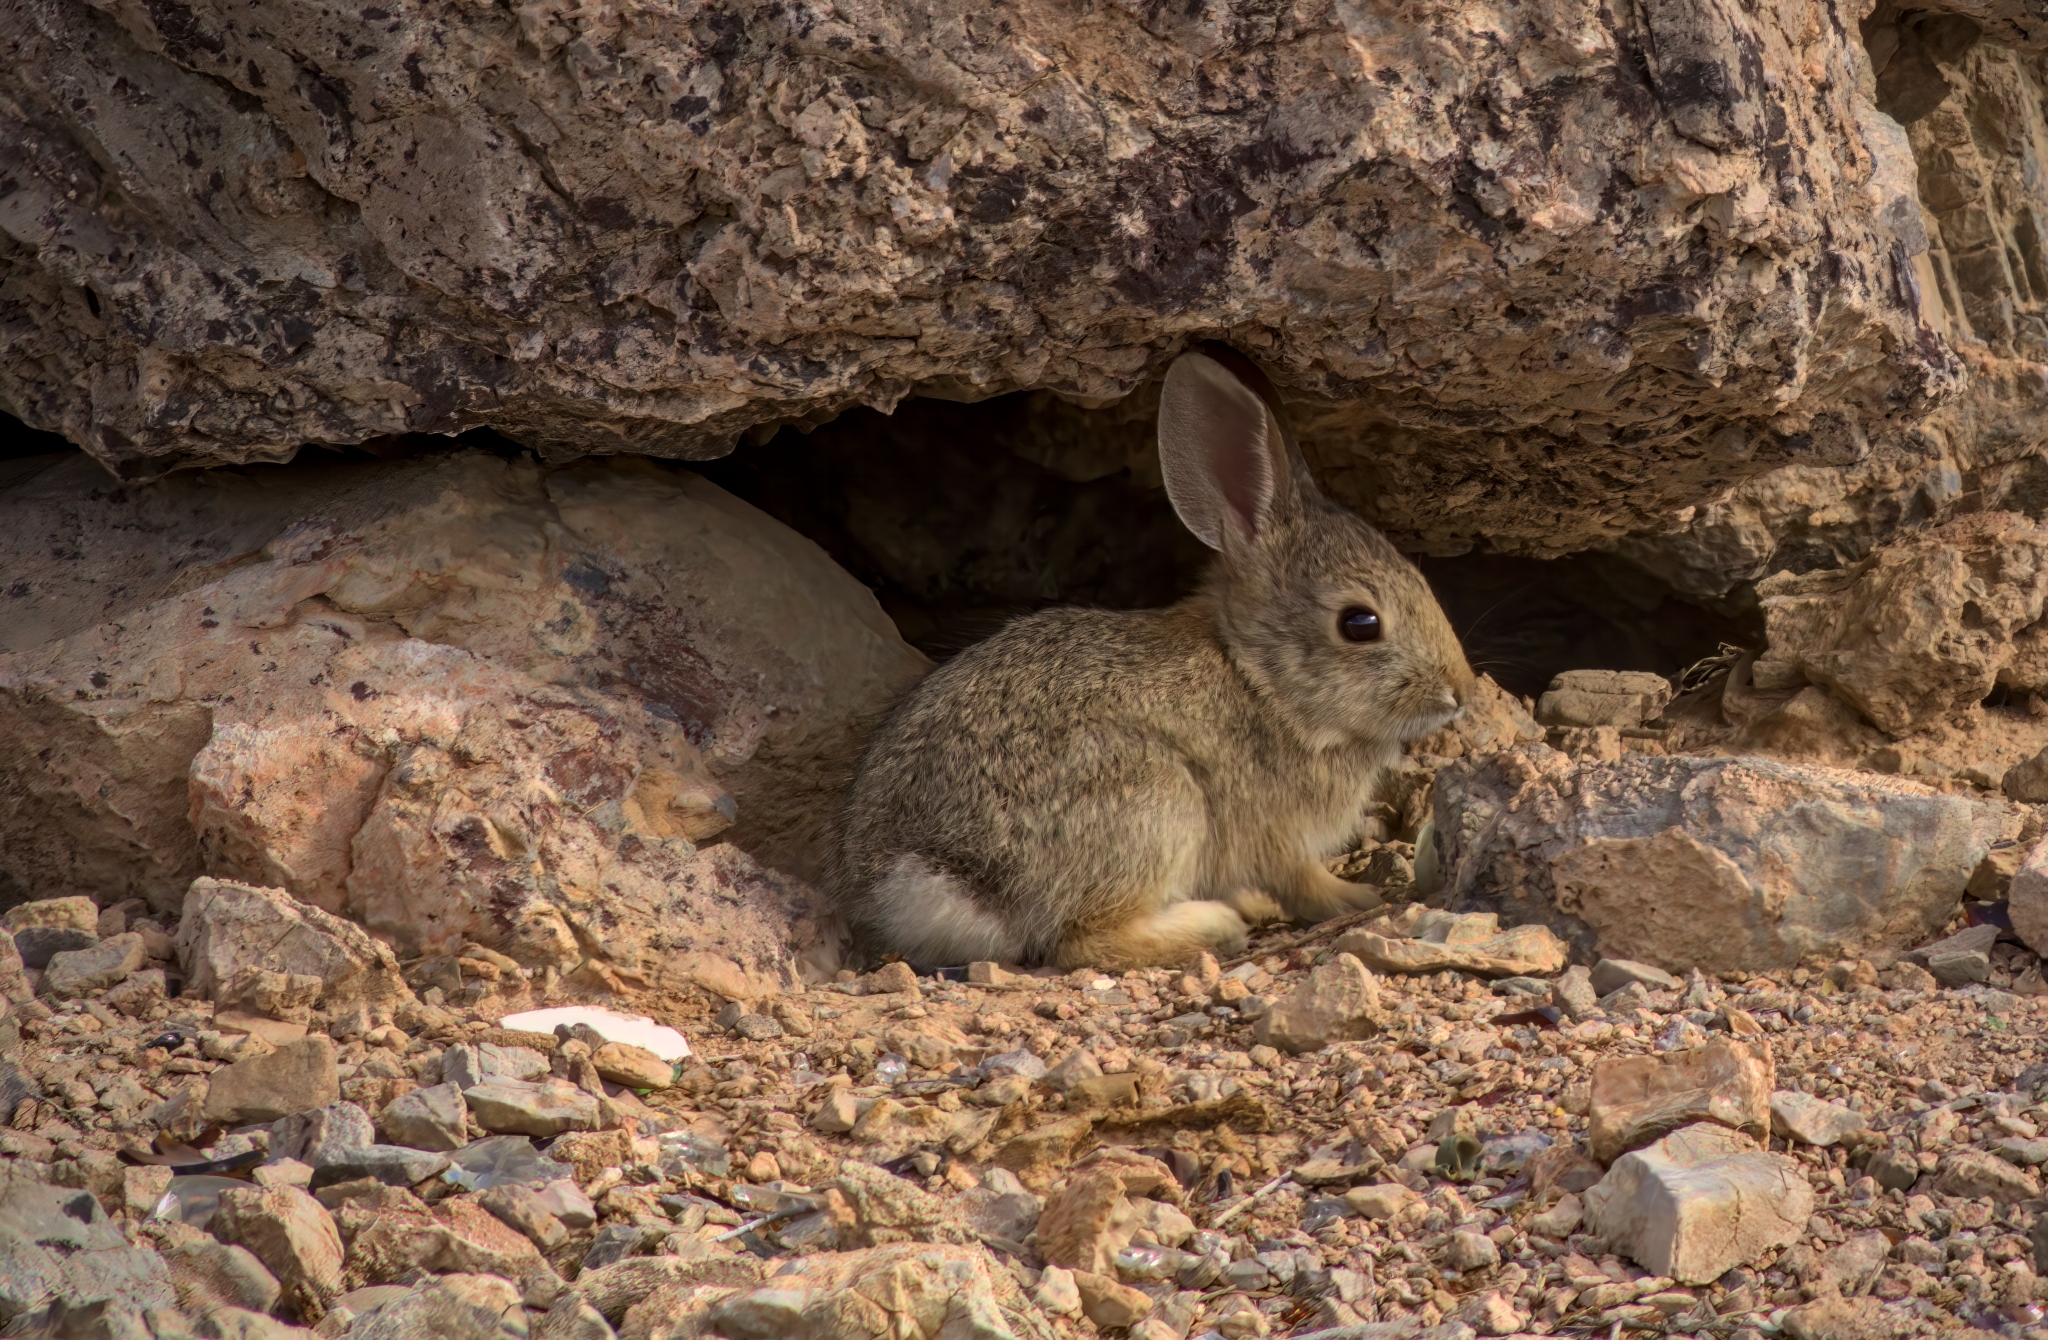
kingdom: Animalia
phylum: Chordata
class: Mammalia
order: Lagomorpha
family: Leporidae
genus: Sylvilagus
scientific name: Sylvilagus audubonii
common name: Desert cottontail
